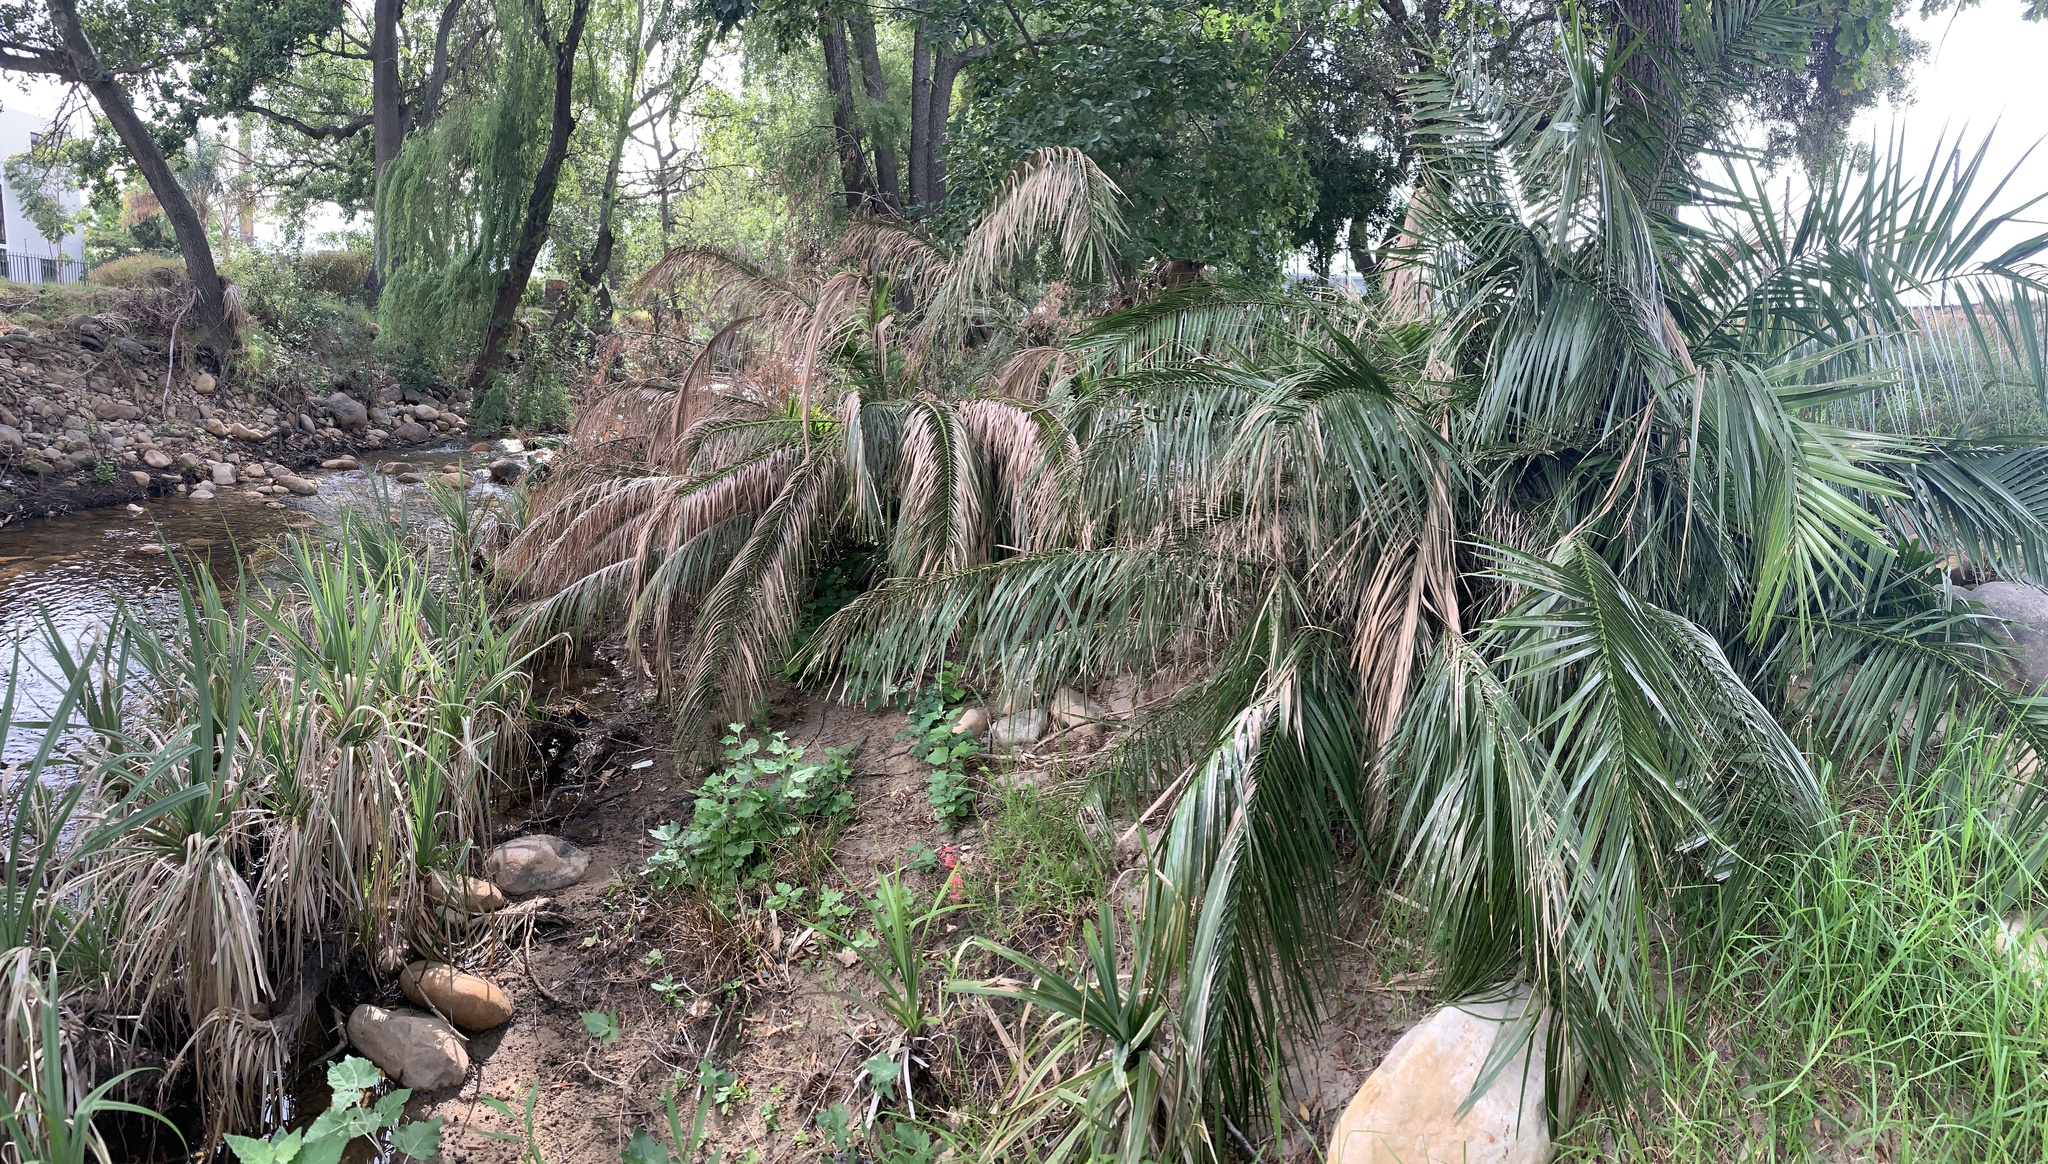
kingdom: Plantae
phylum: Tracheophyta
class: Liliopsida
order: Arecales
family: Arecaceae
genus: Phoenix
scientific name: Phoenix reclinata
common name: Senegal date palm
